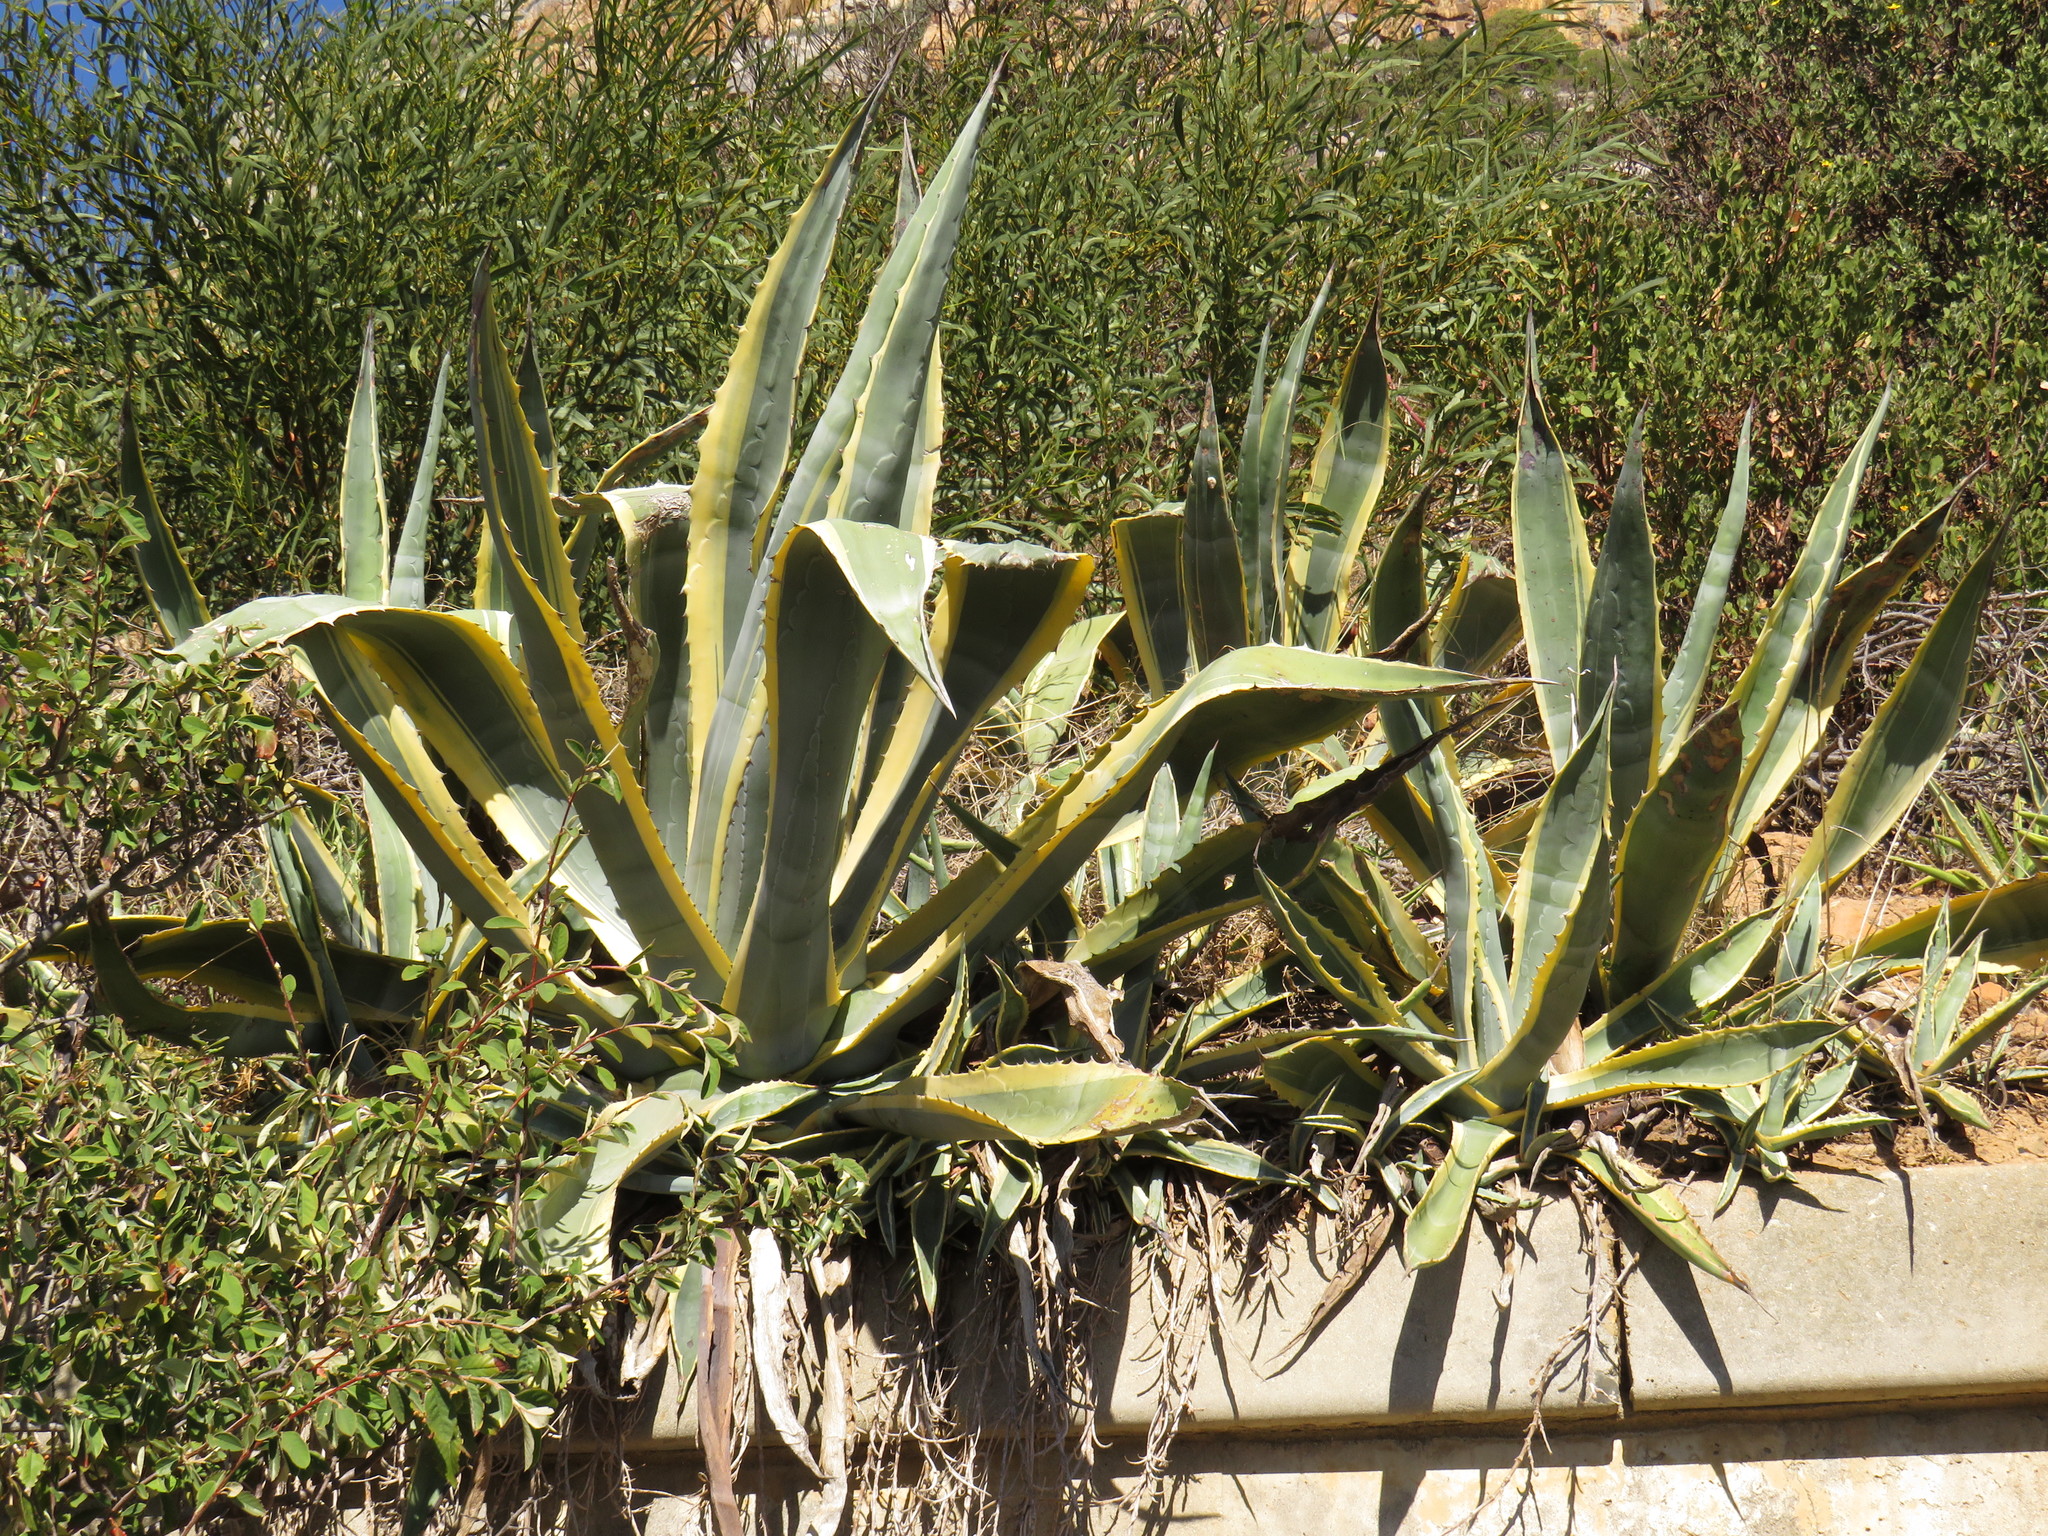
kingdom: Plantae
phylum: Tracheophyta
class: Liliopsida
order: Asparagales
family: Asparagaceae
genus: Agave
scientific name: Agave americana
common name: Centuryplant
